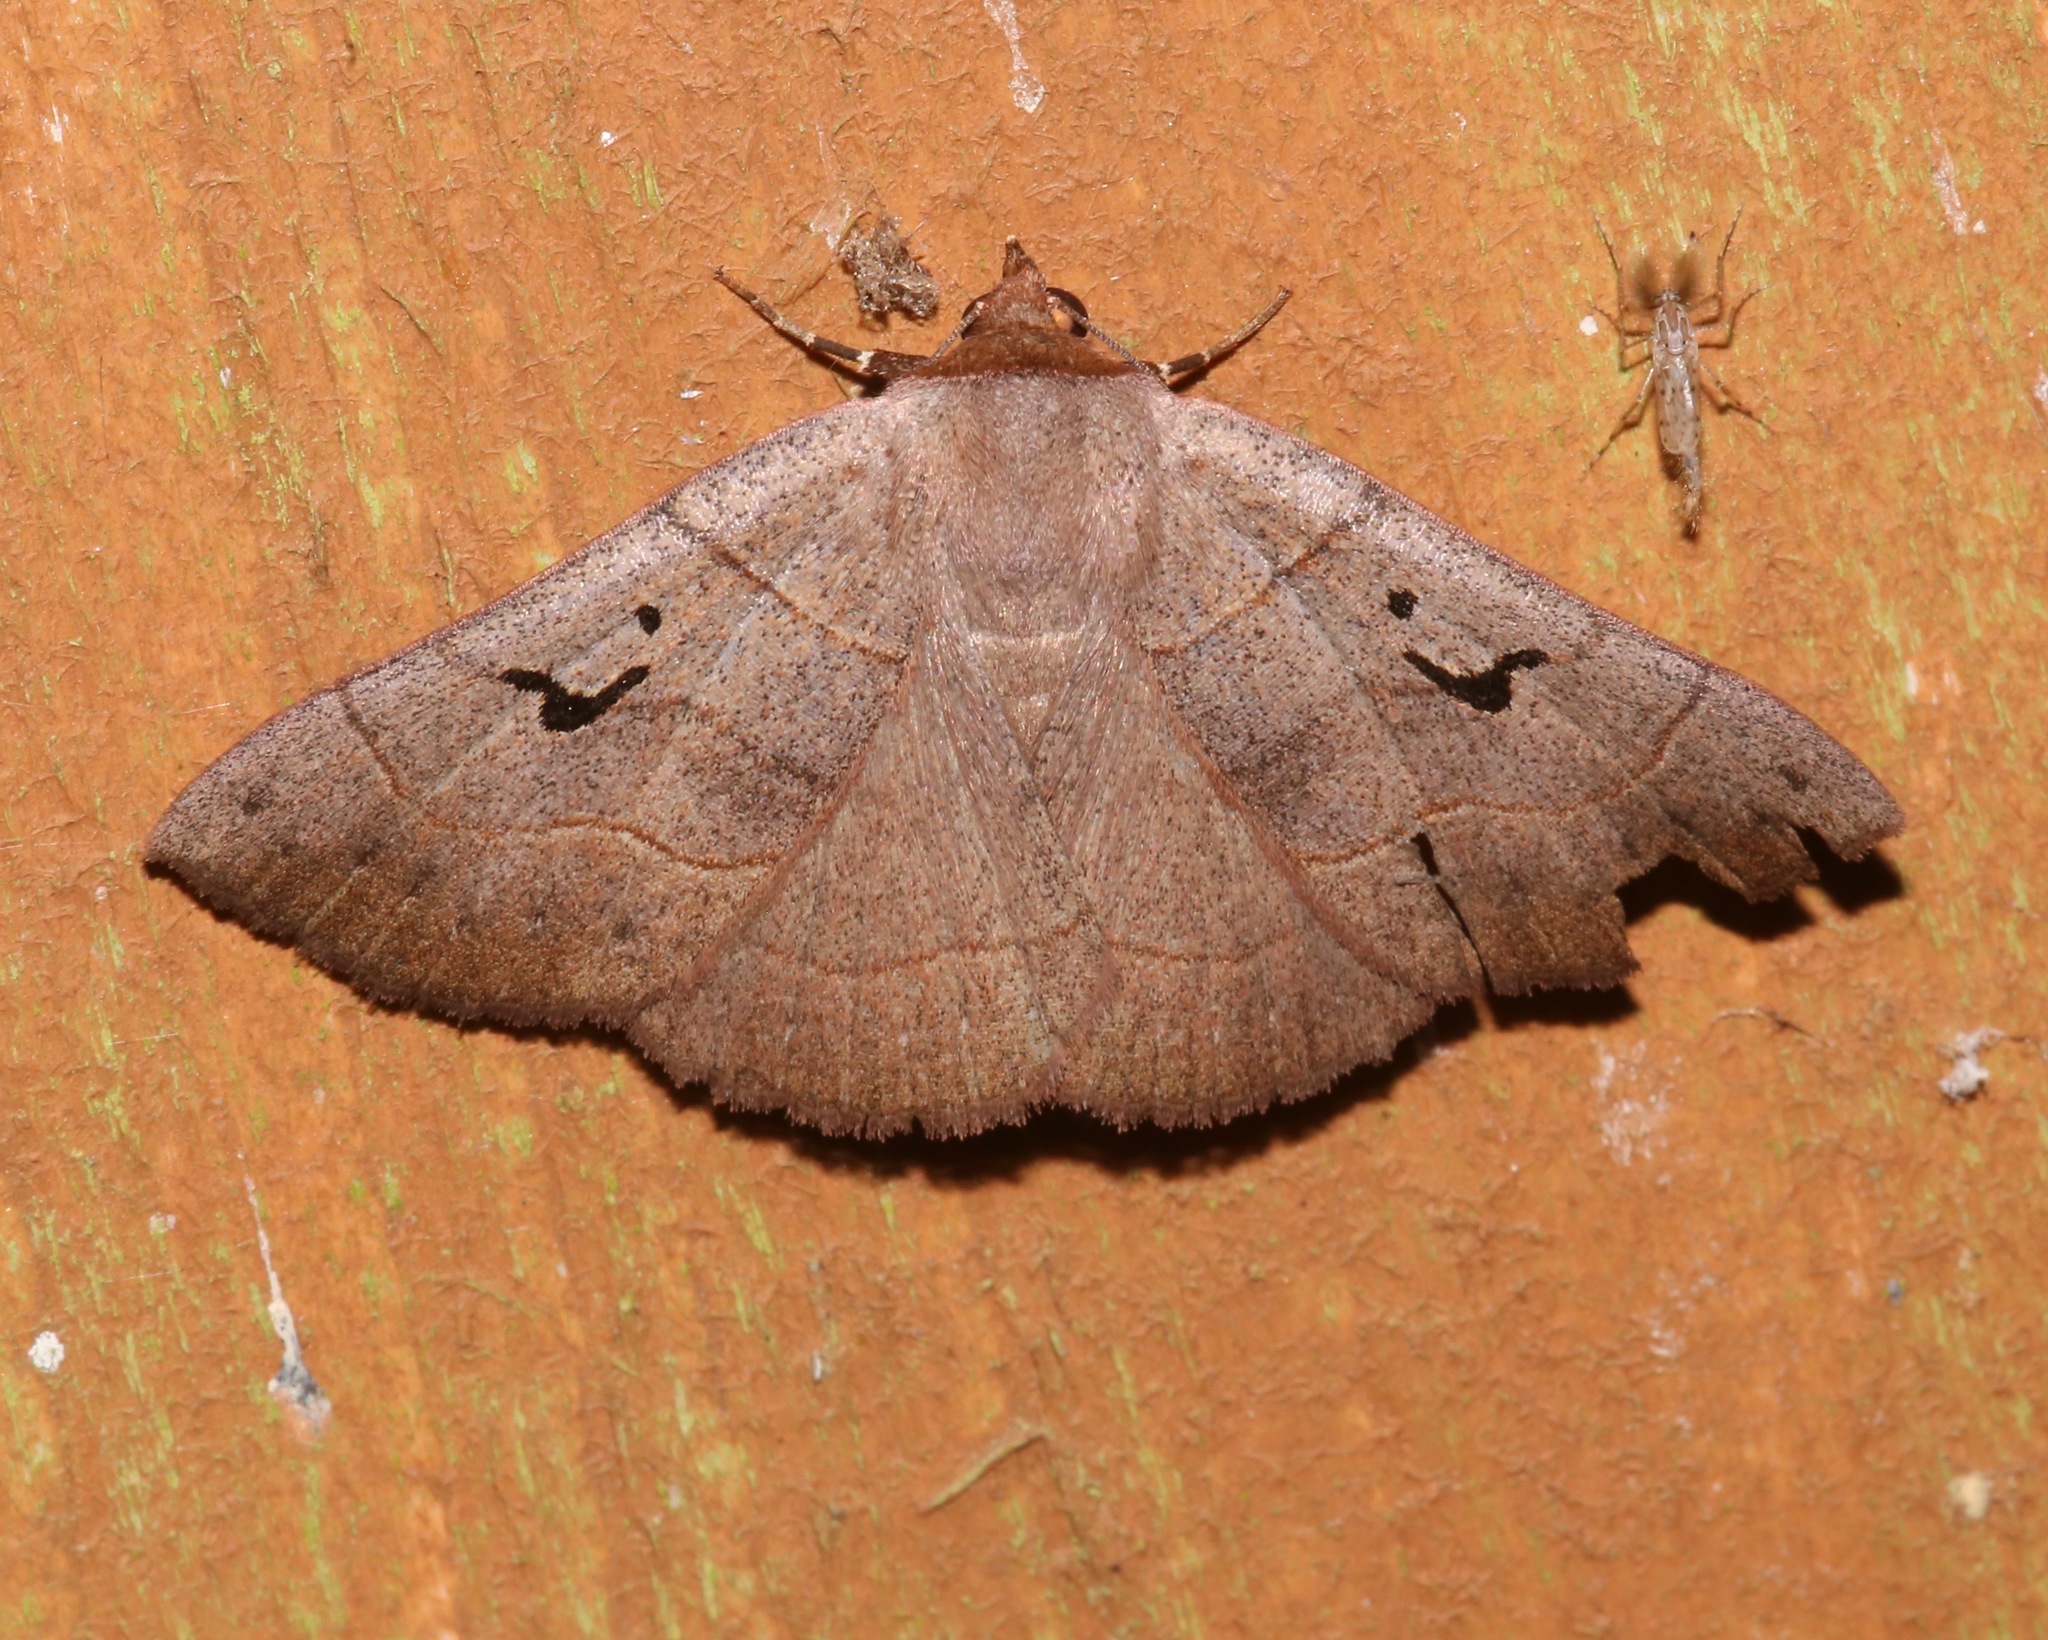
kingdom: Animalia
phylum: Arthropoda
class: Insecta
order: Lepidoptera
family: Erebidae
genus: Panopoda
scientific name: Panopoda carneicosta
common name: Brown panopoda moth
